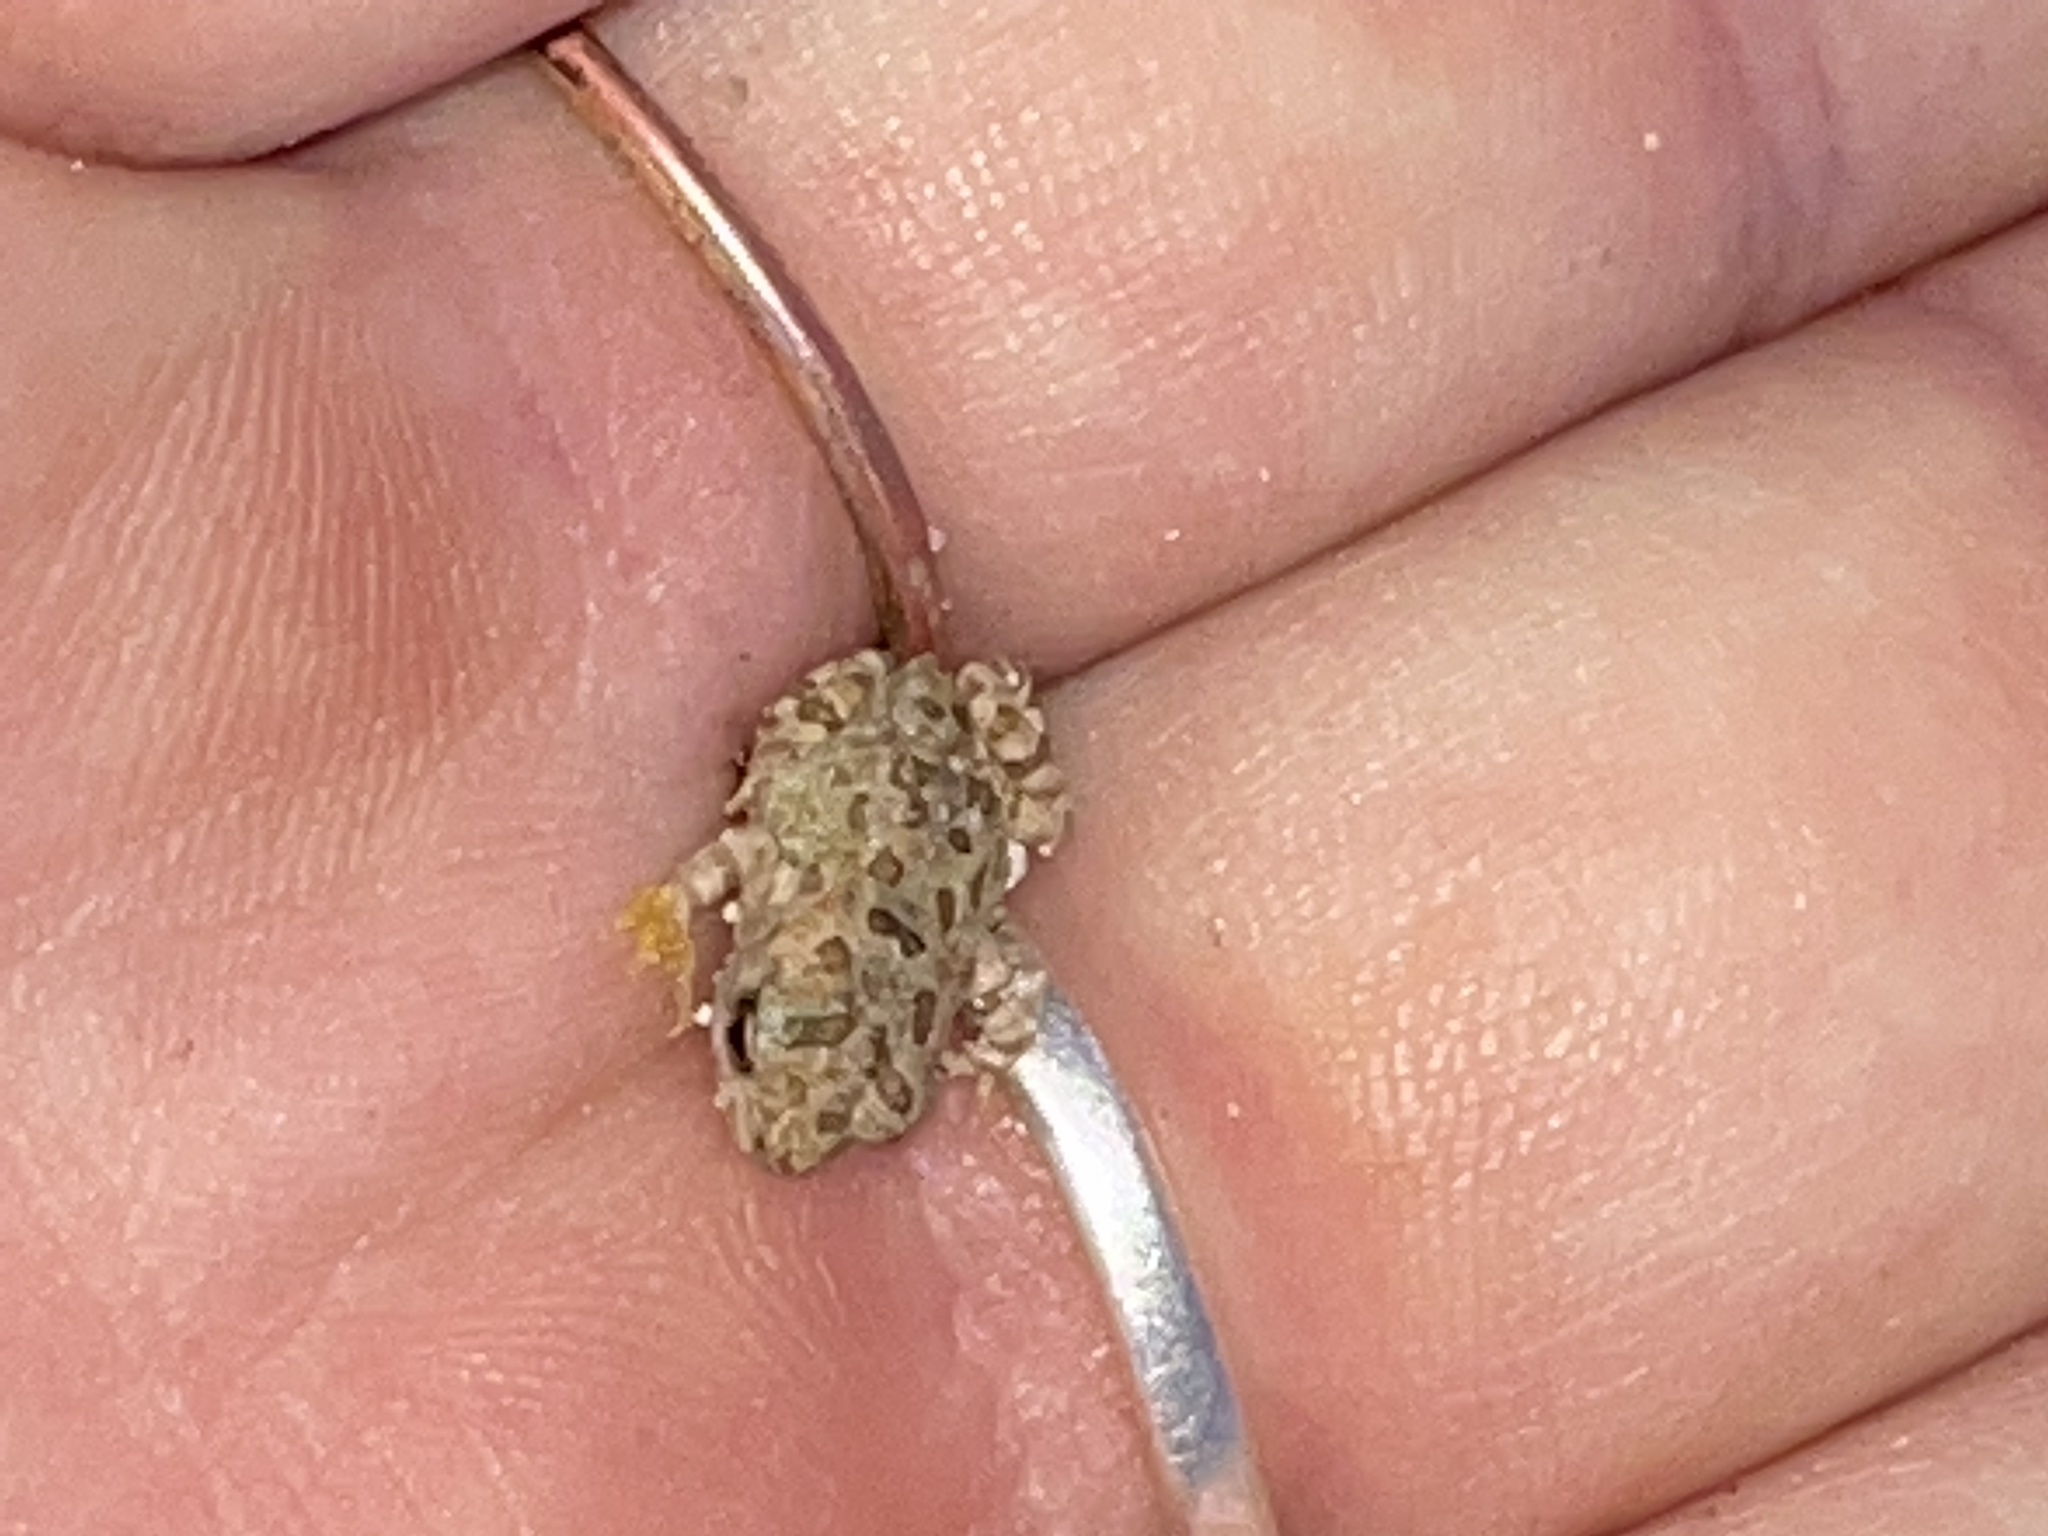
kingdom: Animalia
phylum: Chordata
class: Amphibia
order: Anura
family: Bufonidae
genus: Anaxyrus
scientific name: Anaxyrus fowleri
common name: Fowler's toad
